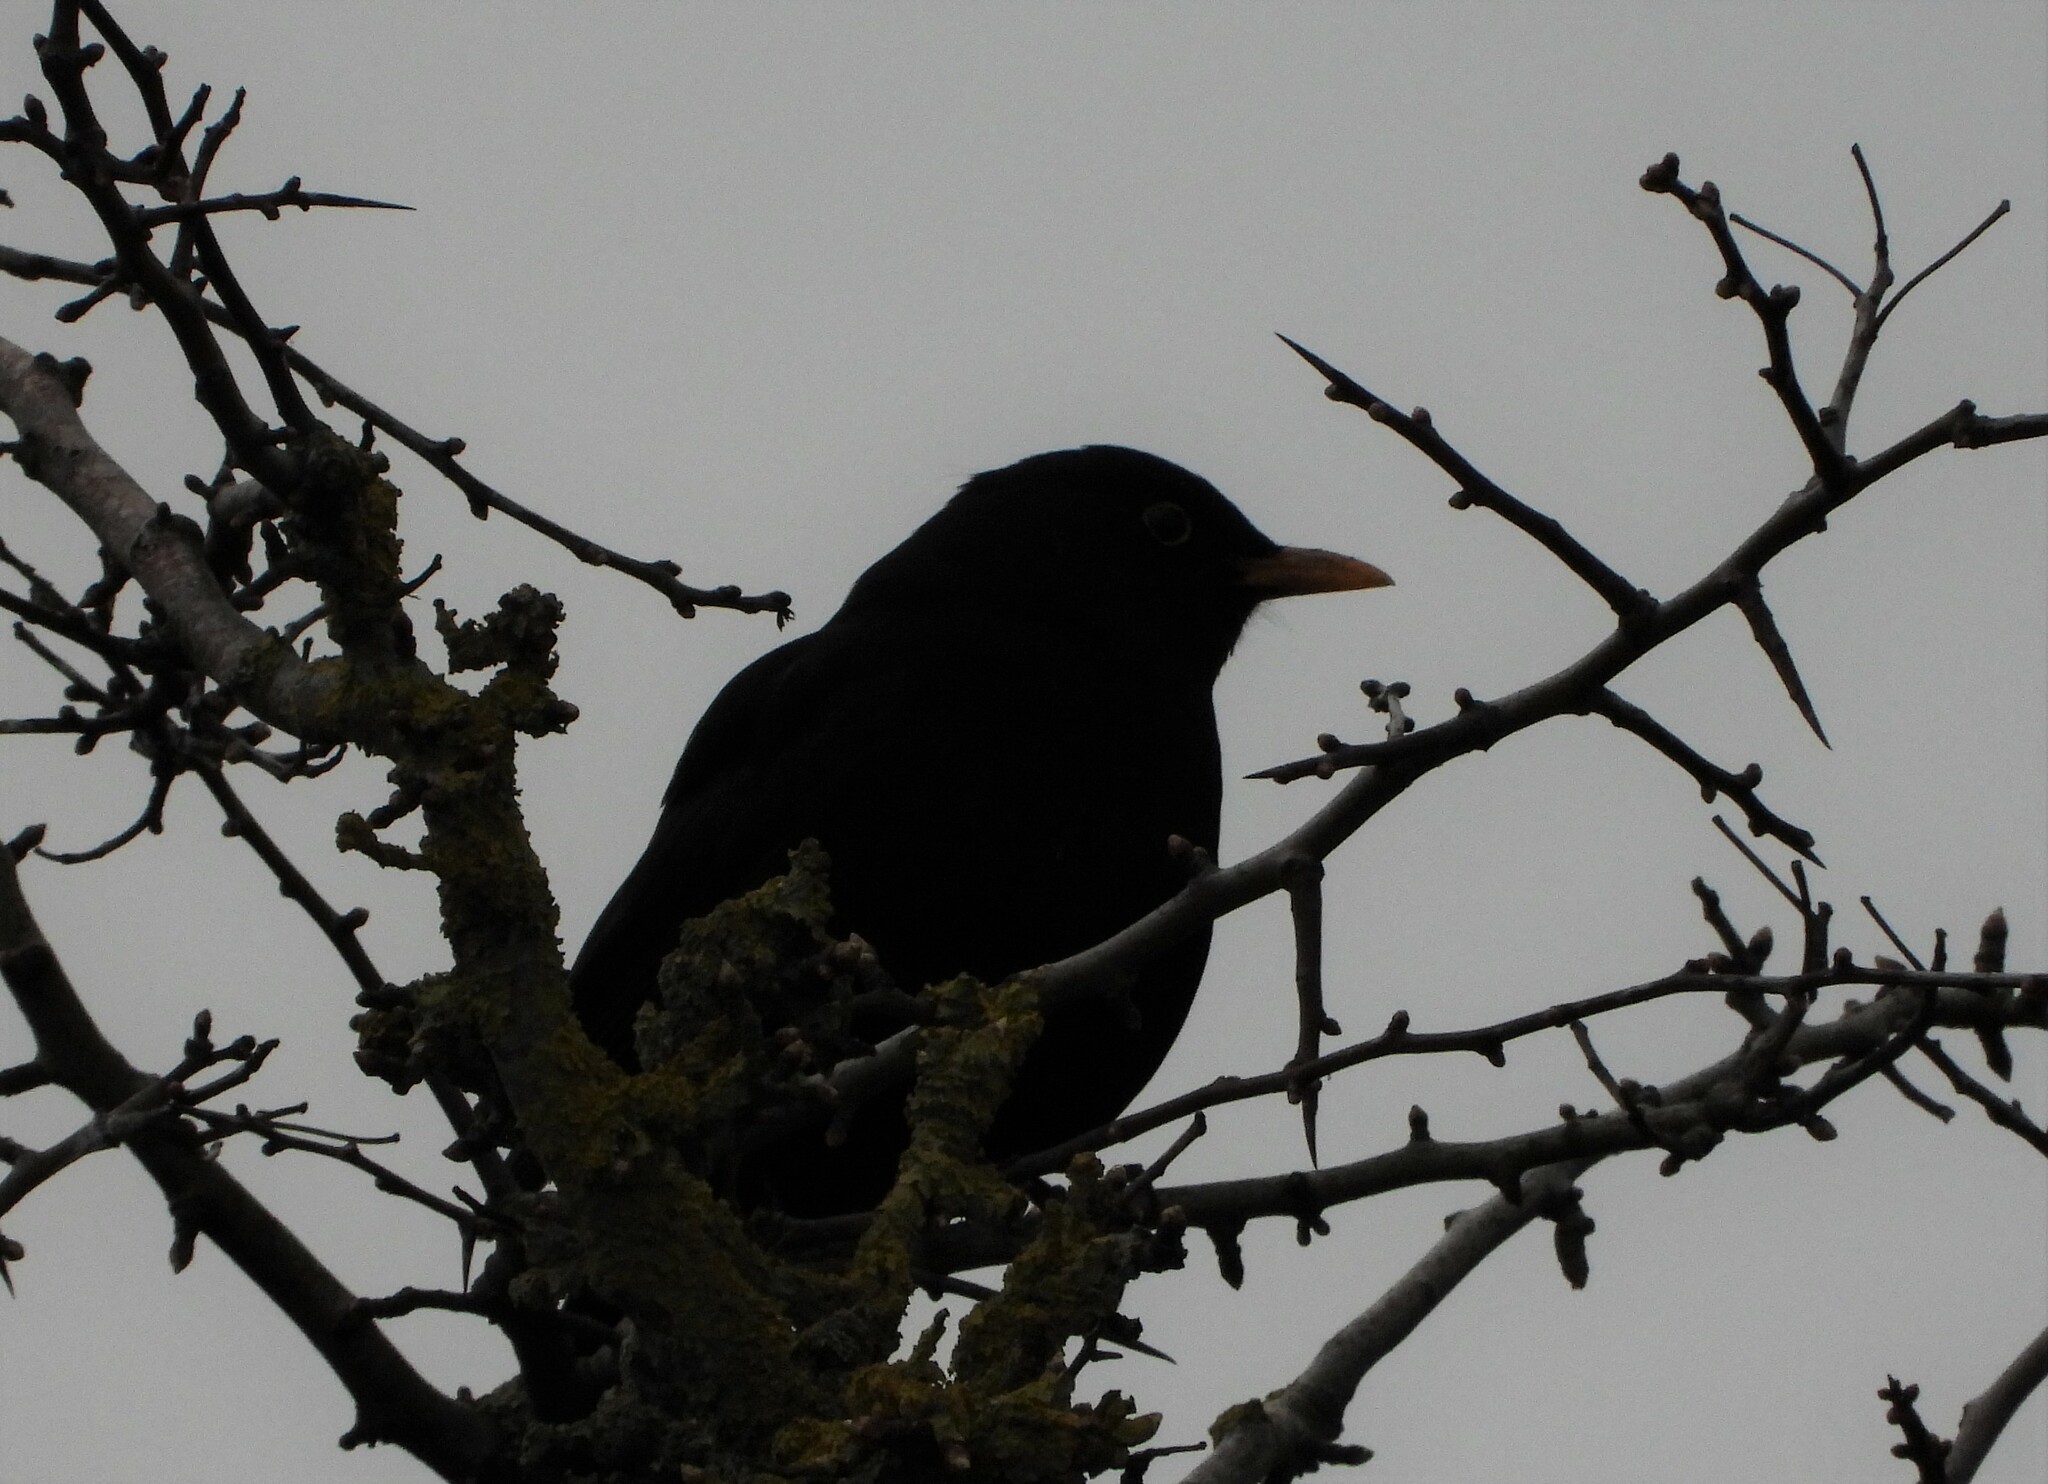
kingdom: Animalia
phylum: Chordata
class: Aves
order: Passeriformes
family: Turdidae
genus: Turdus
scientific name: Turdus merula
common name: Common blackbird
